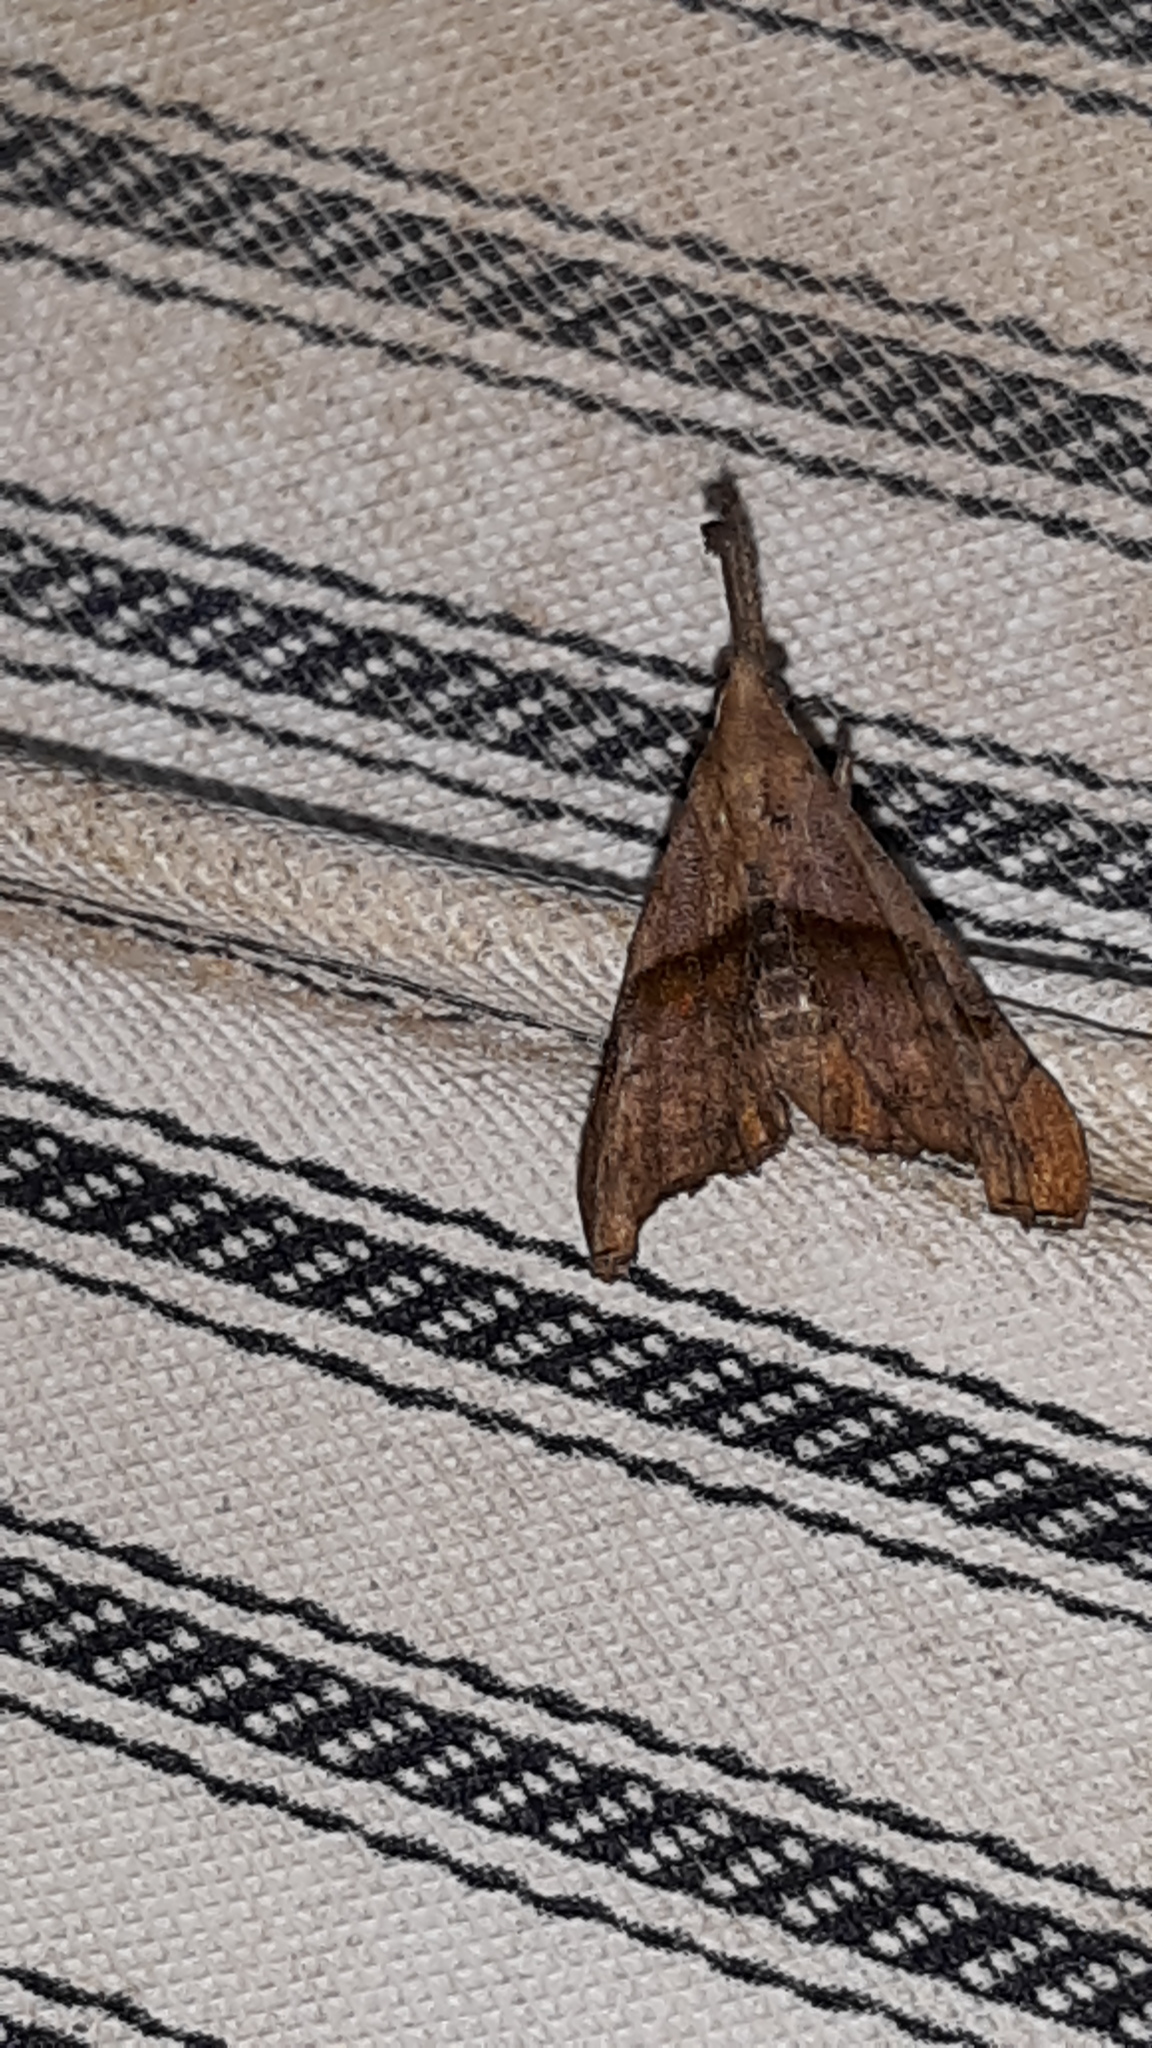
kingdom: Animalia
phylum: Arthropoda
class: Insecta
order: Lepidoptera
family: Erebidae
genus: Palthis
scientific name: Palthis angulalis
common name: Dark-spotted palthis moth
